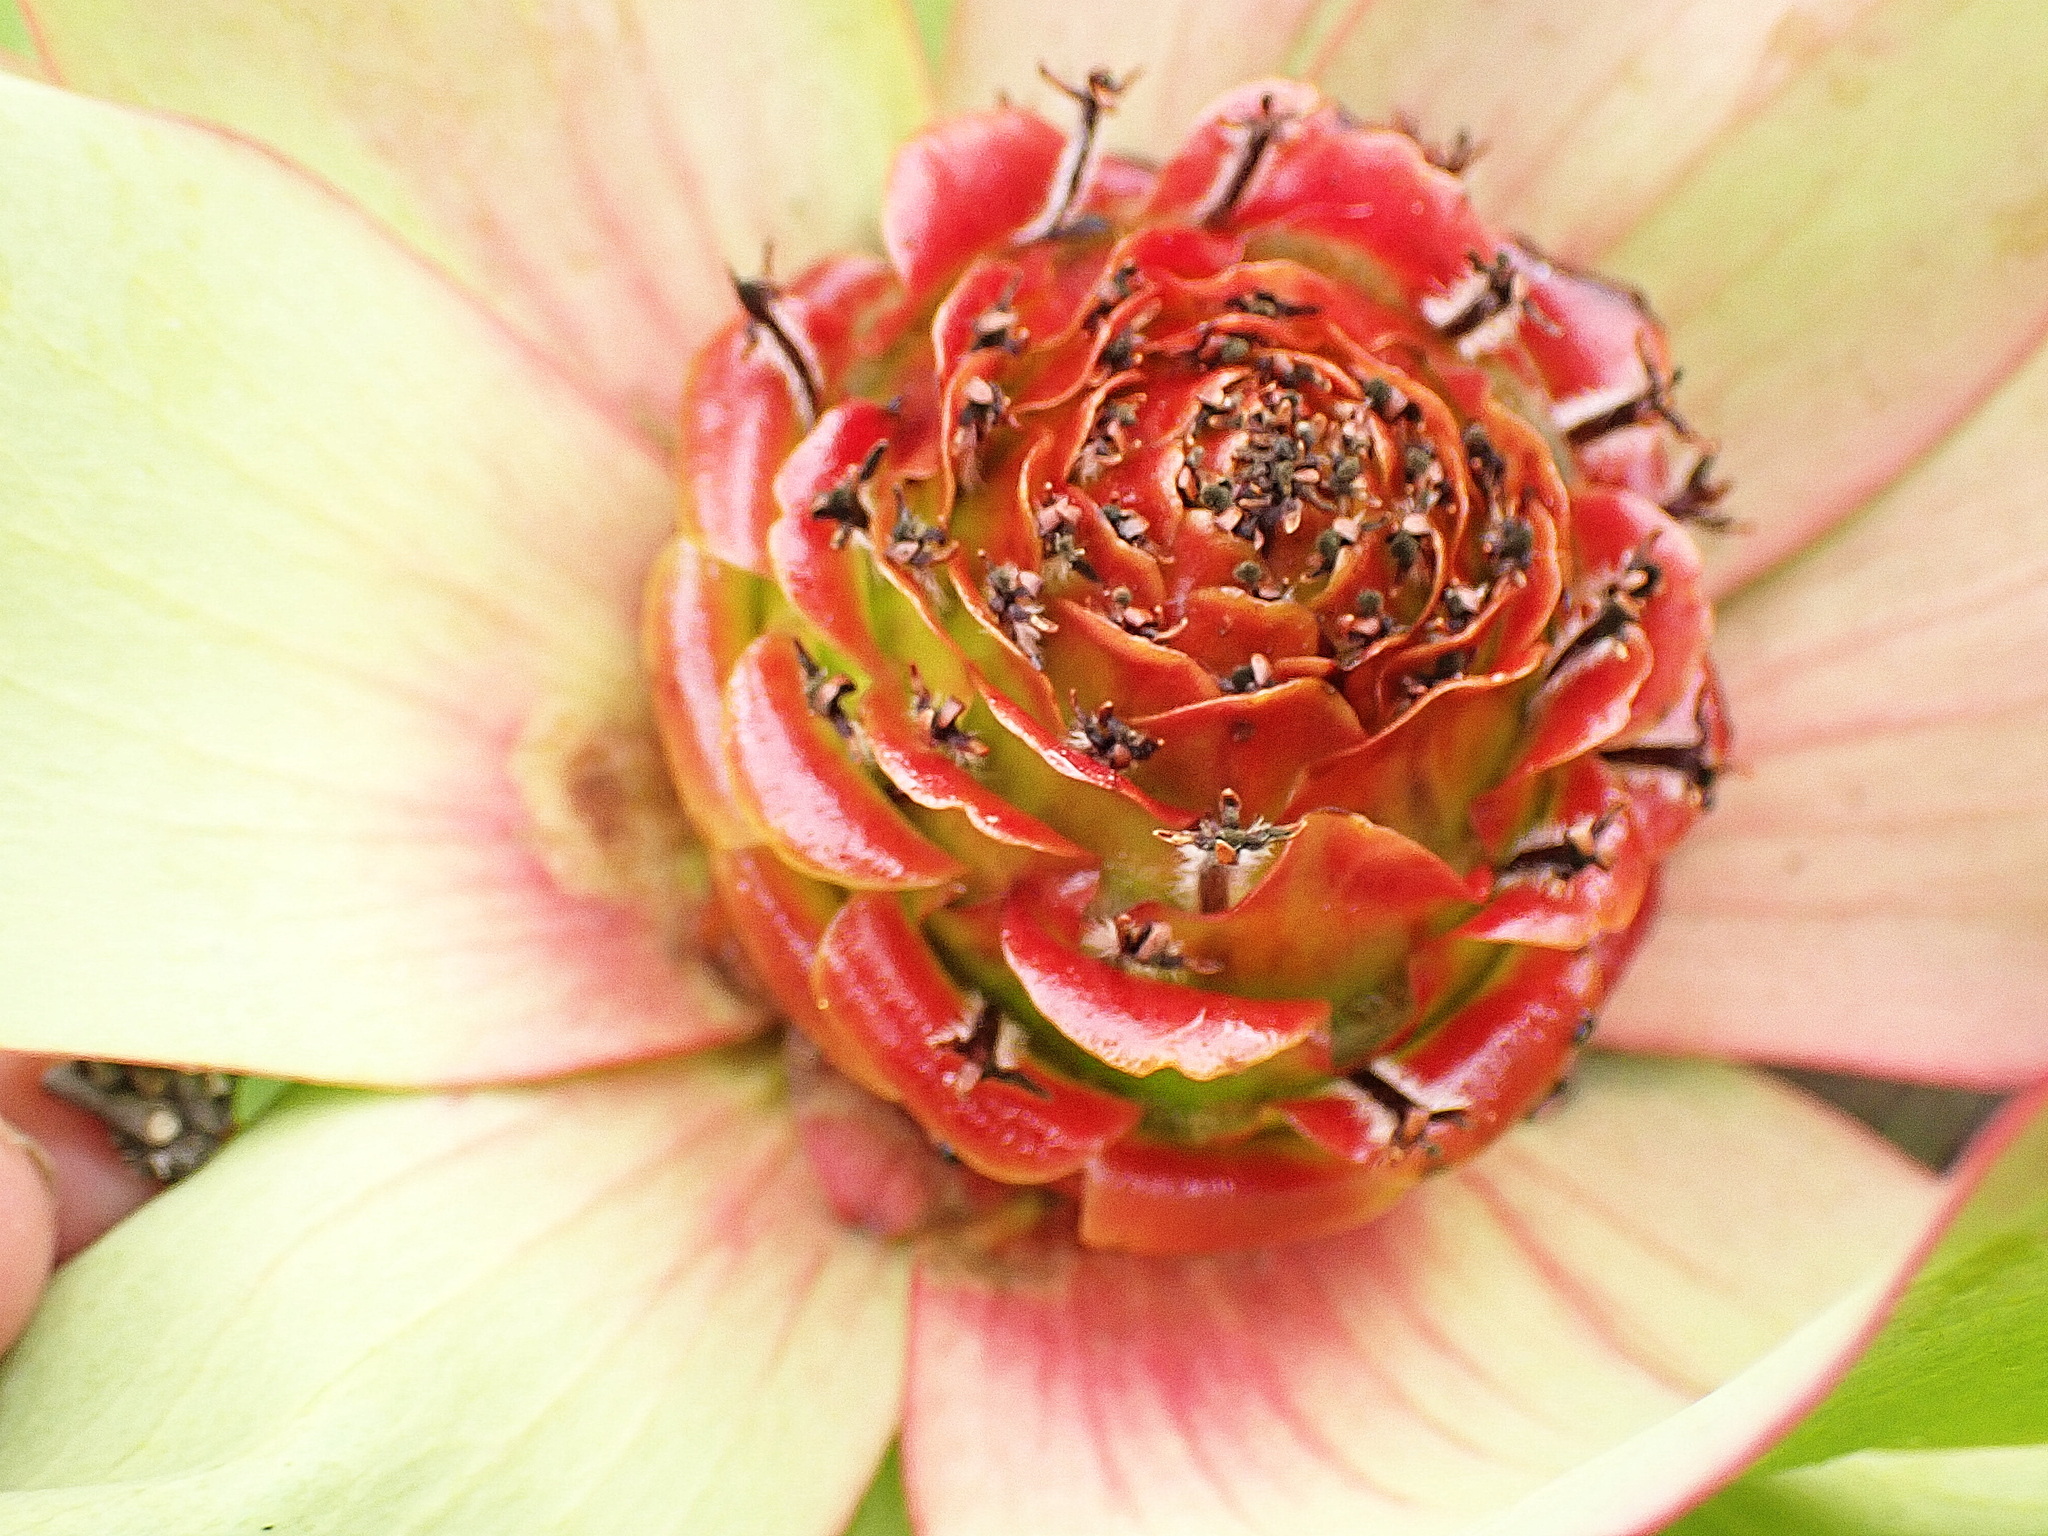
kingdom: Plantae
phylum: Tracheophyta
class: Magnoliopsida
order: Proteales
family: Proteaceae
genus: Leucadendron
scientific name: Leucadendron tinctum
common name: Spicy conebush
